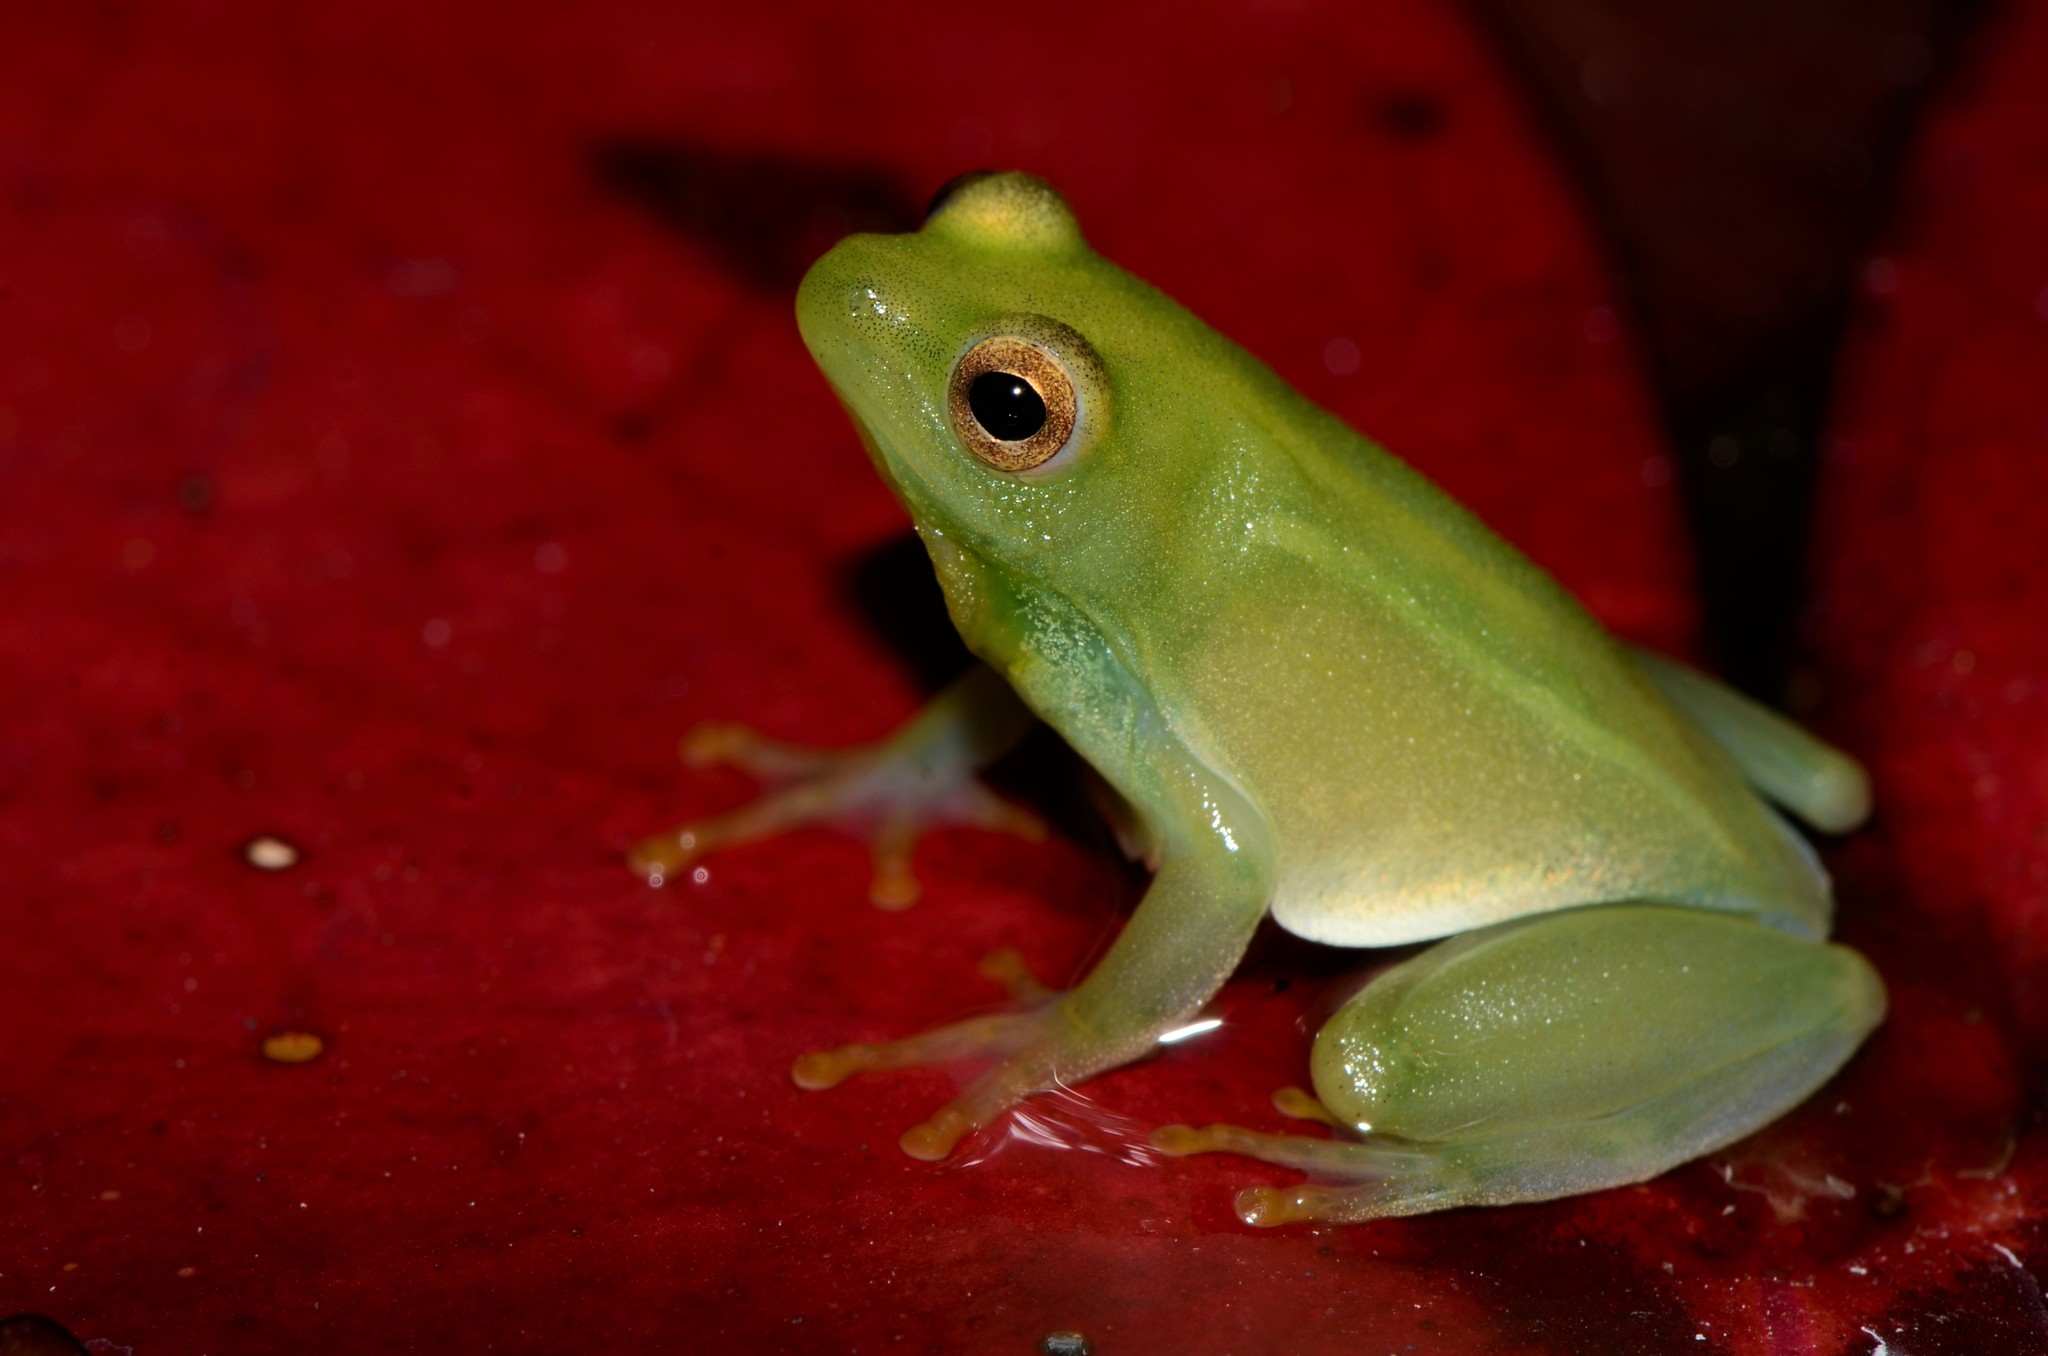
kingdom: Animalia
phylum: Chordata
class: Amphibia
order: Anura
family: Hyperoliidae
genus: Hyperolius
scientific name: Hyperolius pusillus
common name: Water lily reed frog
